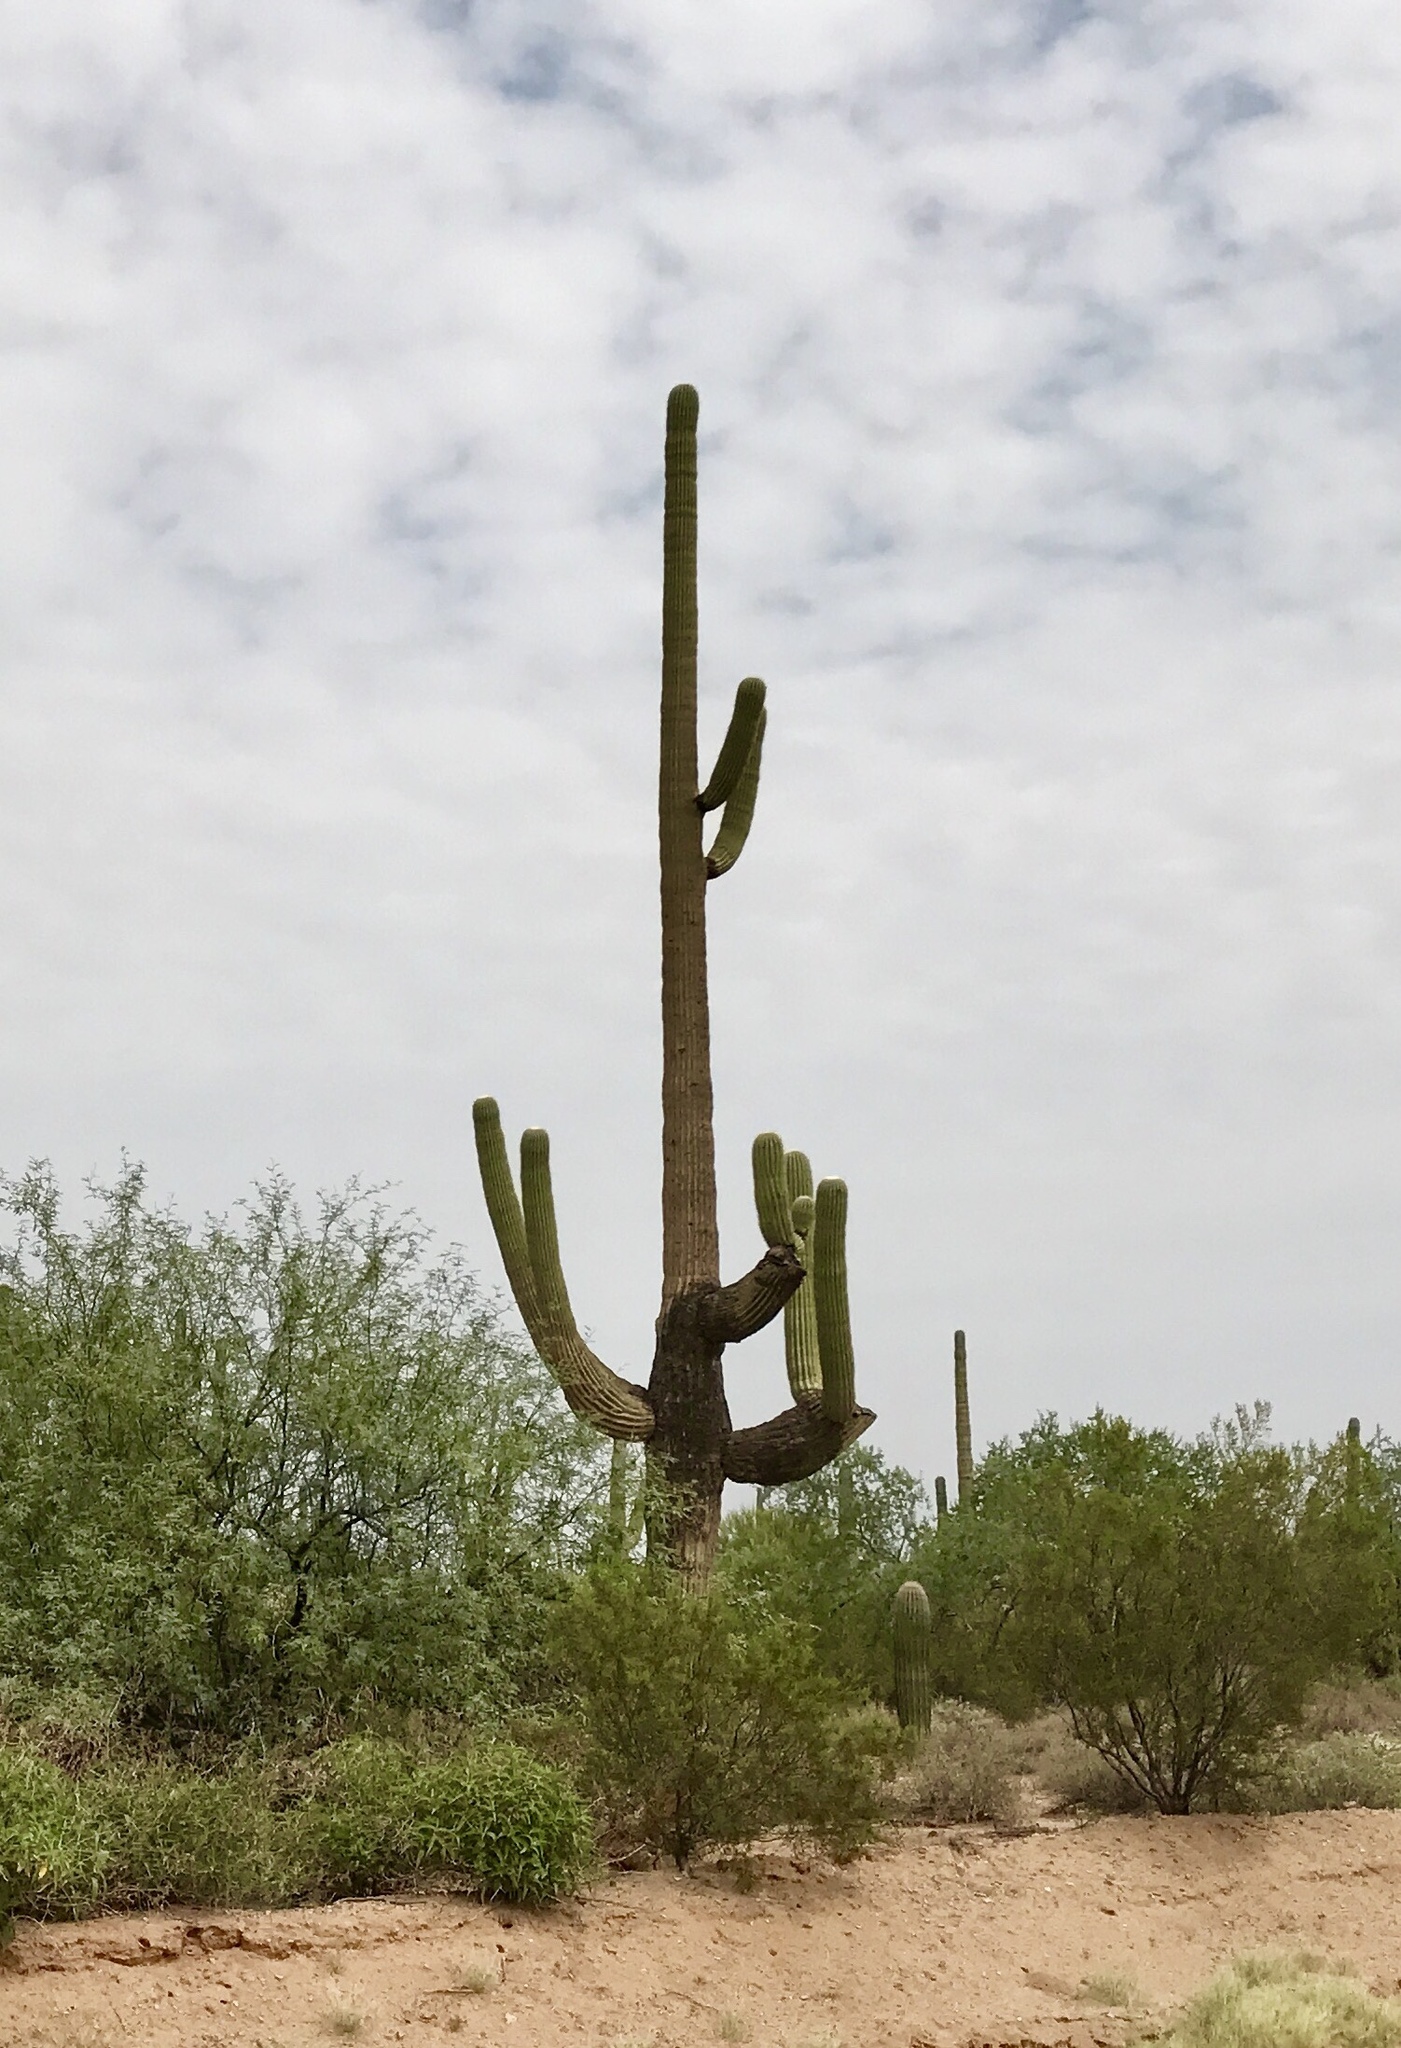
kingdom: Plantae
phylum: Tracheophyta
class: Magnoliopsida
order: Caryophyllales
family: Cactaceae
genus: Carnegiea
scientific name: Carnegiea gigantea
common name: Saguaro
